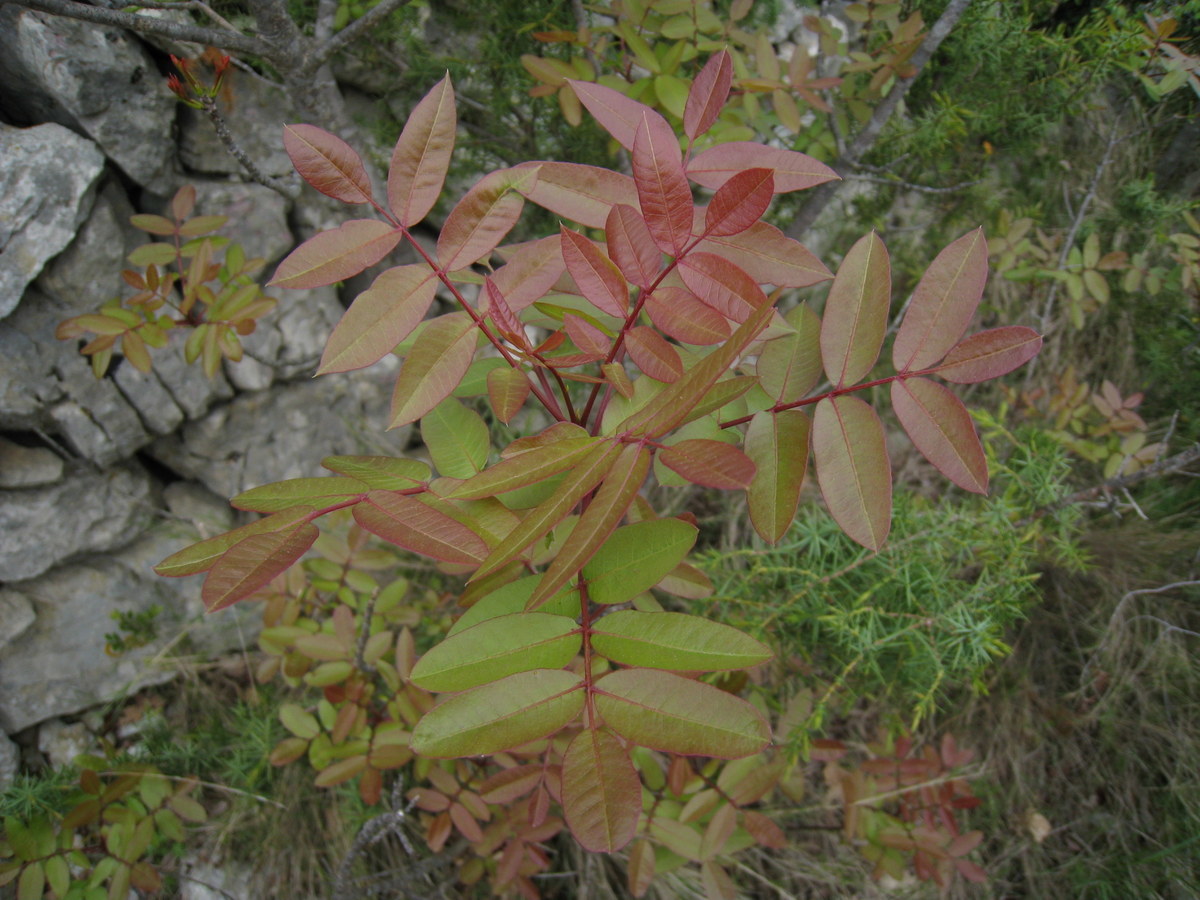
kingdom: Plantae
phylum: Tracheophyta
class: Magnoliopsida
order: Sapindales
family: Anacardiaceae
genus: Pistacia
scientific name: Pistacia terebinthus
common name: Terebinth
